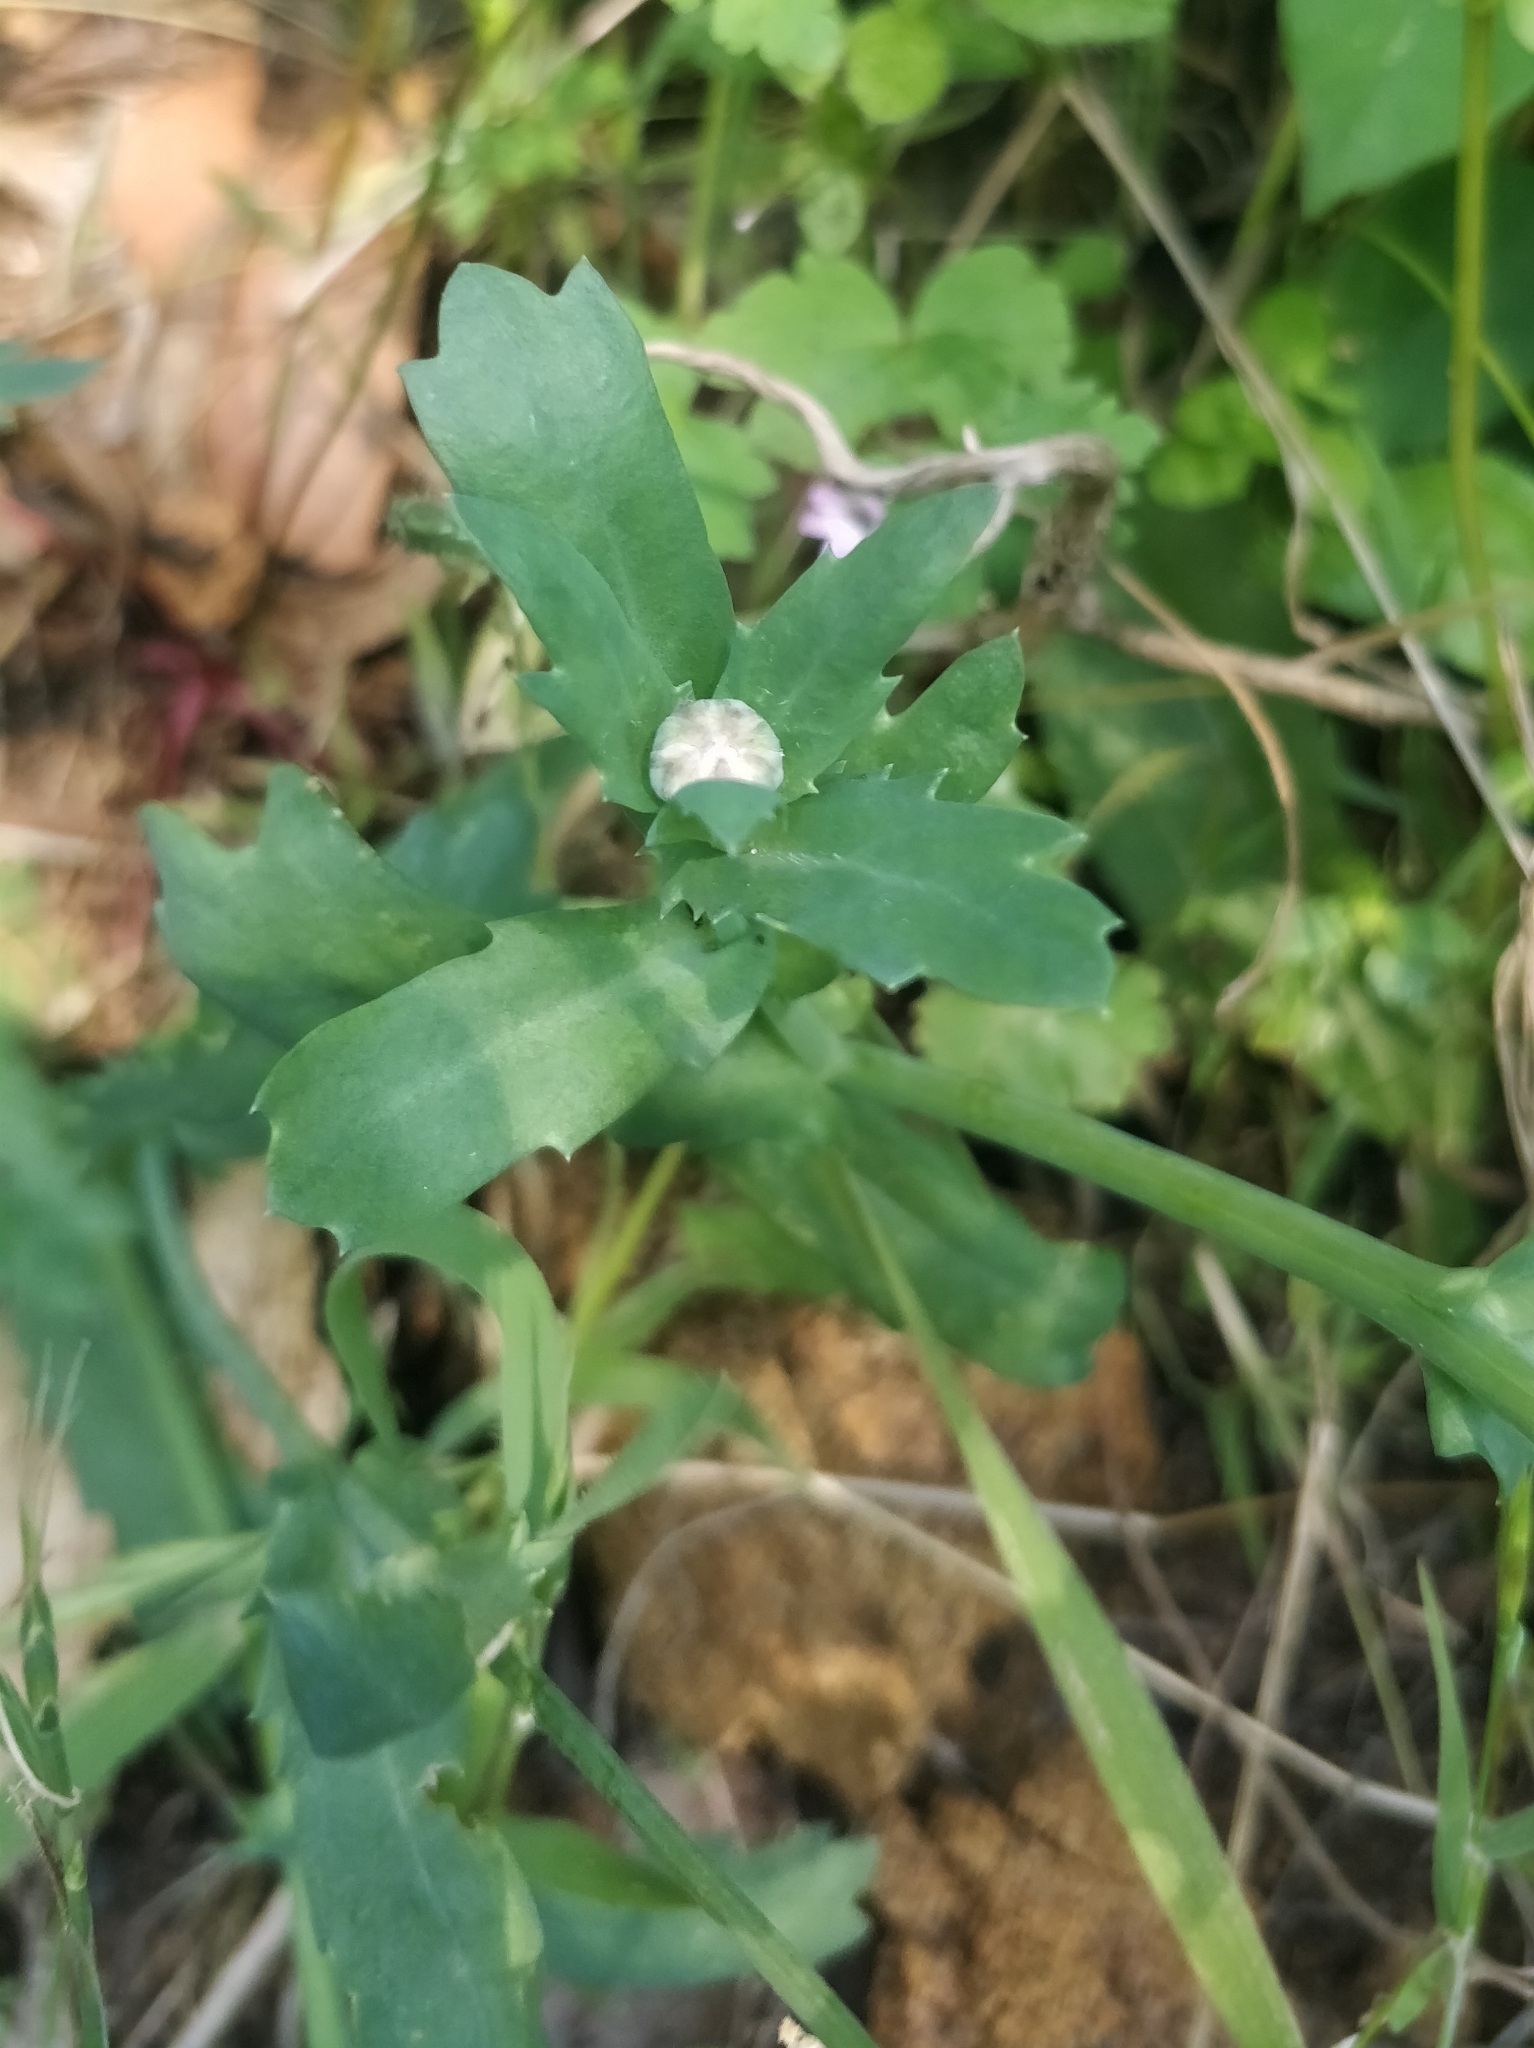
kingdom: Plantae
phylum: Tracheophyta
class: Magnoliopsida
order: Asterales
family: Asteraceae
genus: Glebionis
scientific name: Glebionis segetum
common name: Corndaisy
